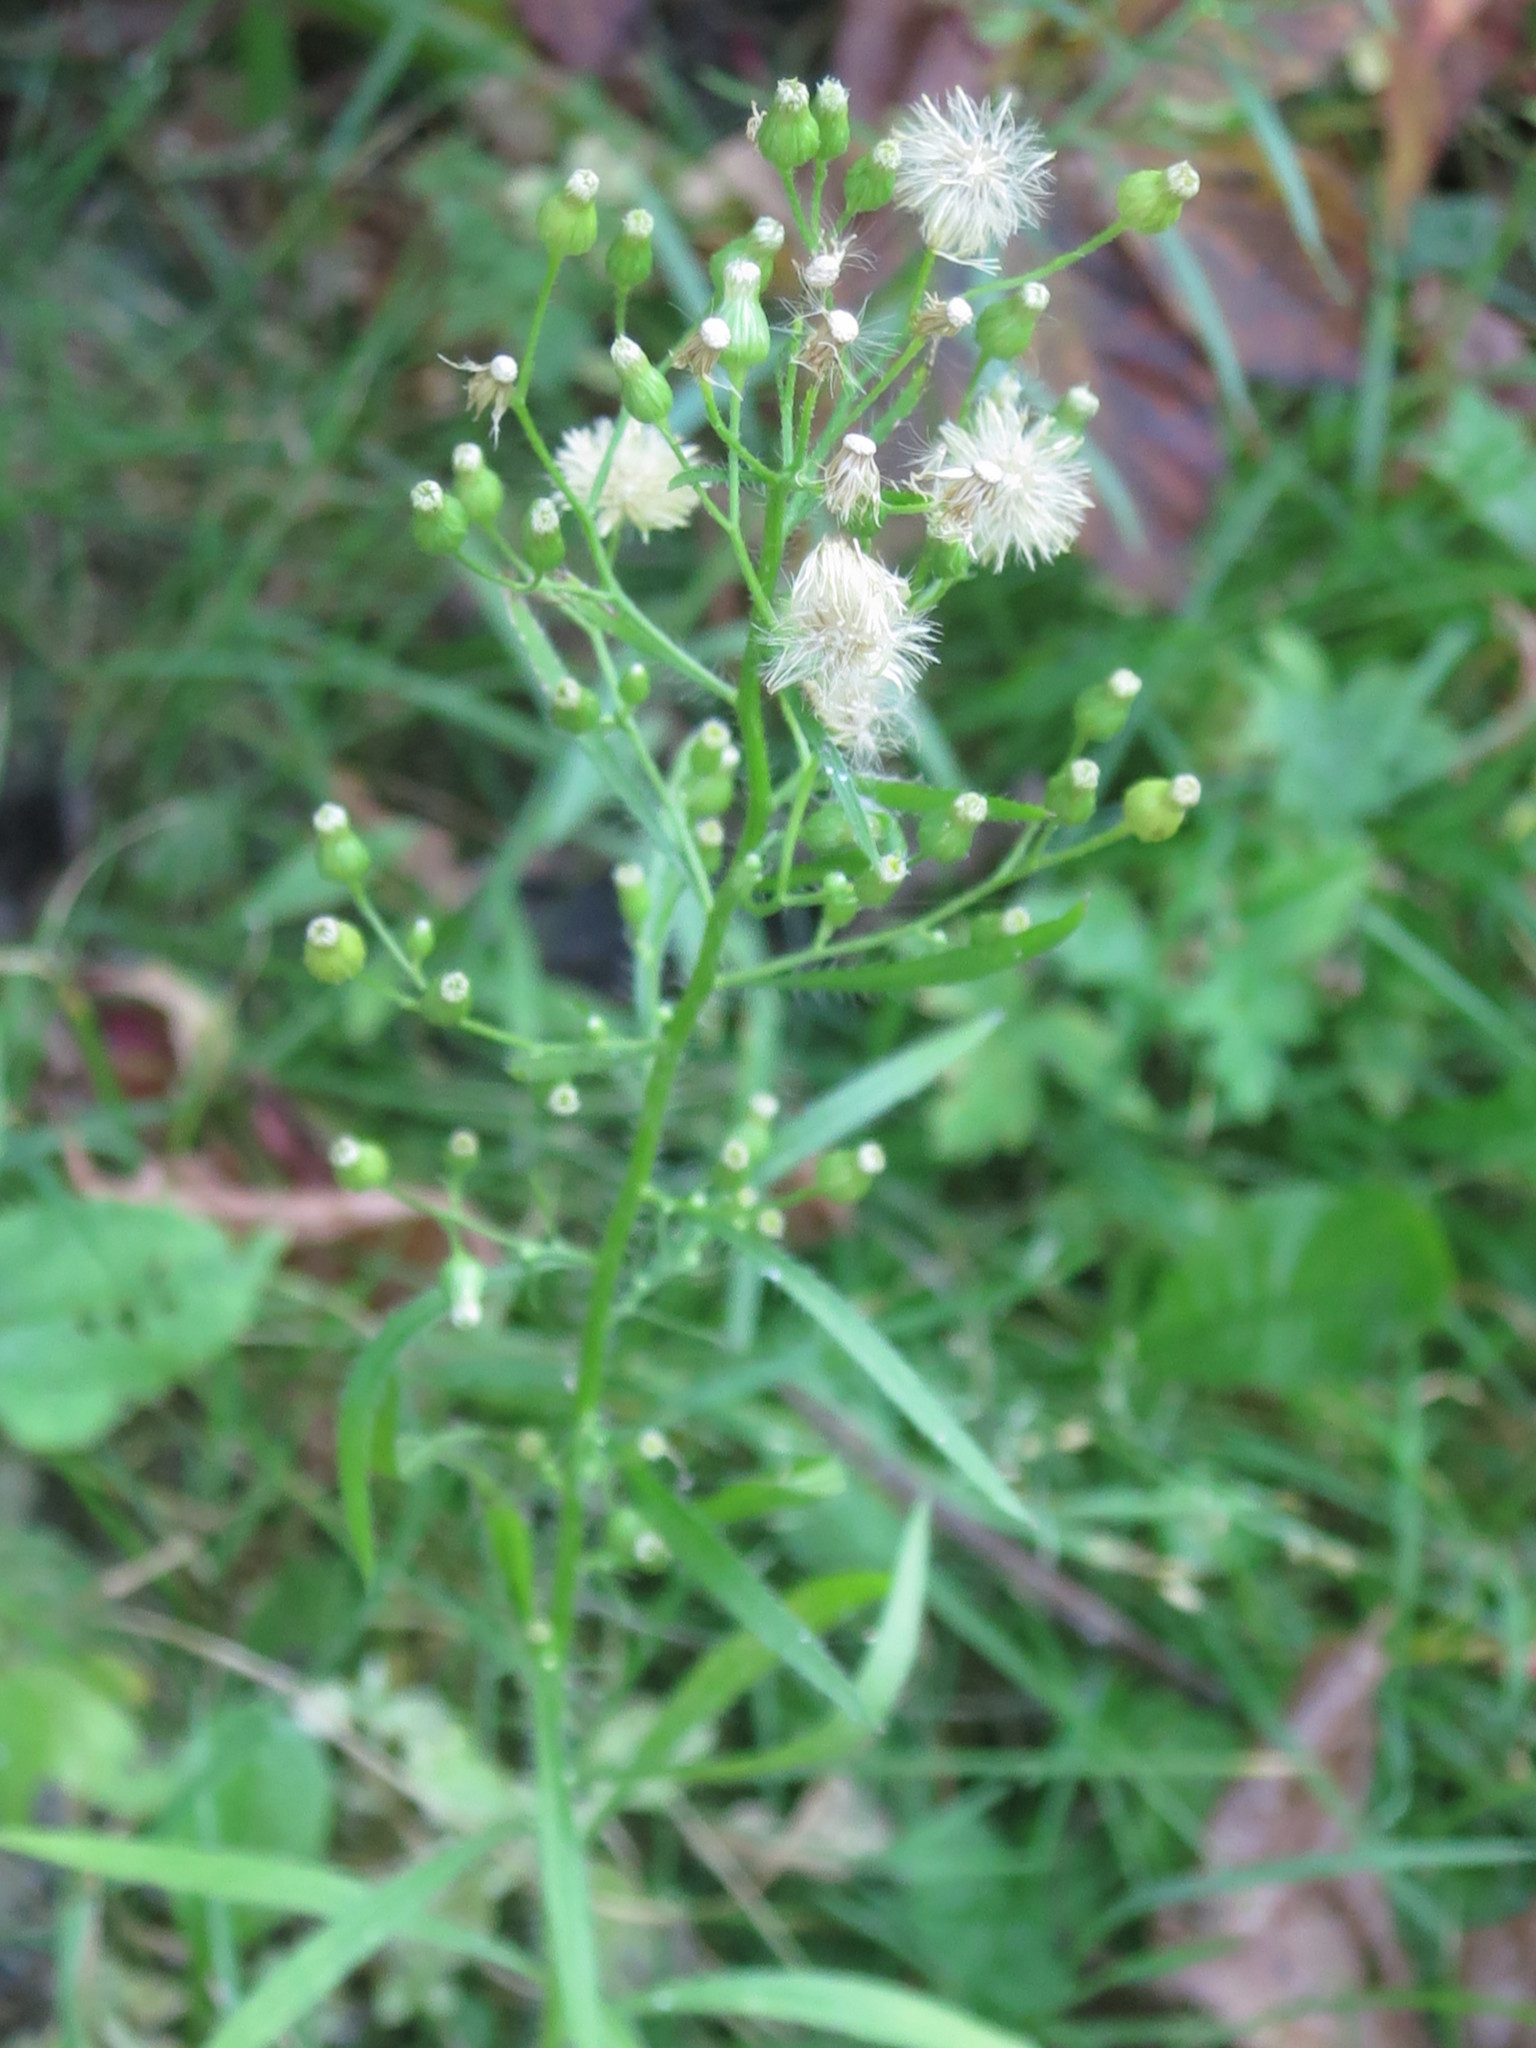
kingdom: Plantae
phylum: Tracheophyta
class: Magnoliopsida
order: Asterales
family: Asteraceae
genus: Erigeron
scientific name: Erigeron canadensis
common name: Canadian fleabane
